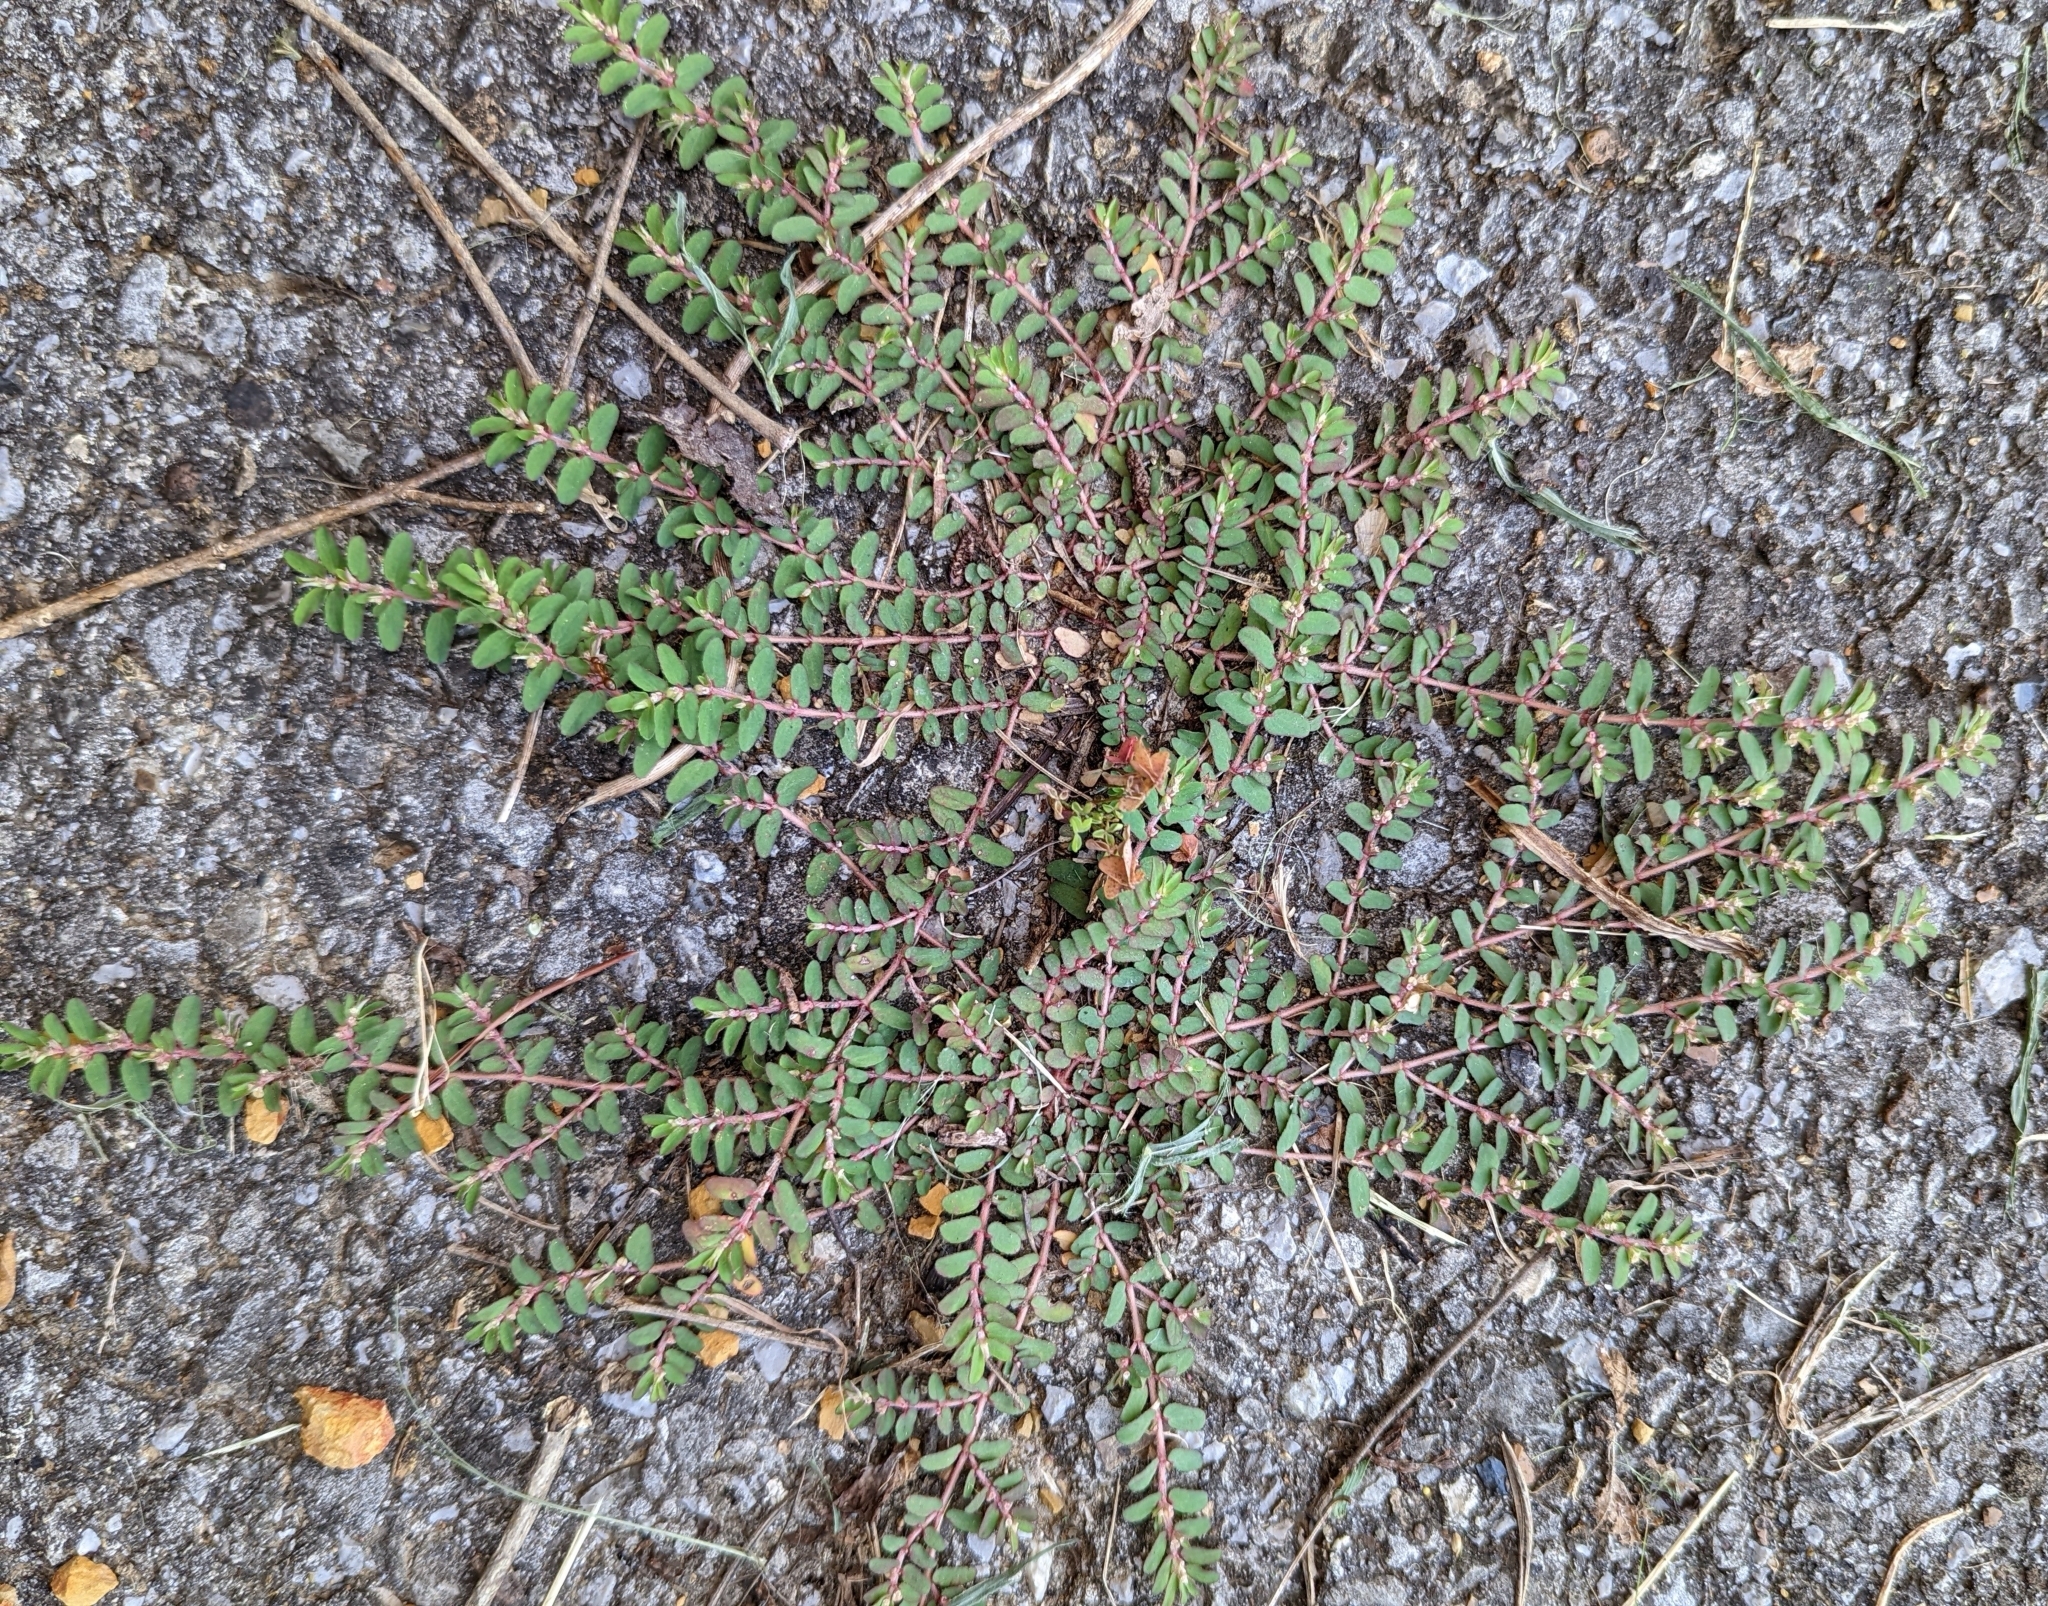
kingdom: Plantae
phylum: Tracheophyta
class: Magnoliopsida
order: Malpighiales
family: Euphorbiaceae
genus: Euphorbia
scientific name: Euphorbia maculata
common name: Spotted spurge
